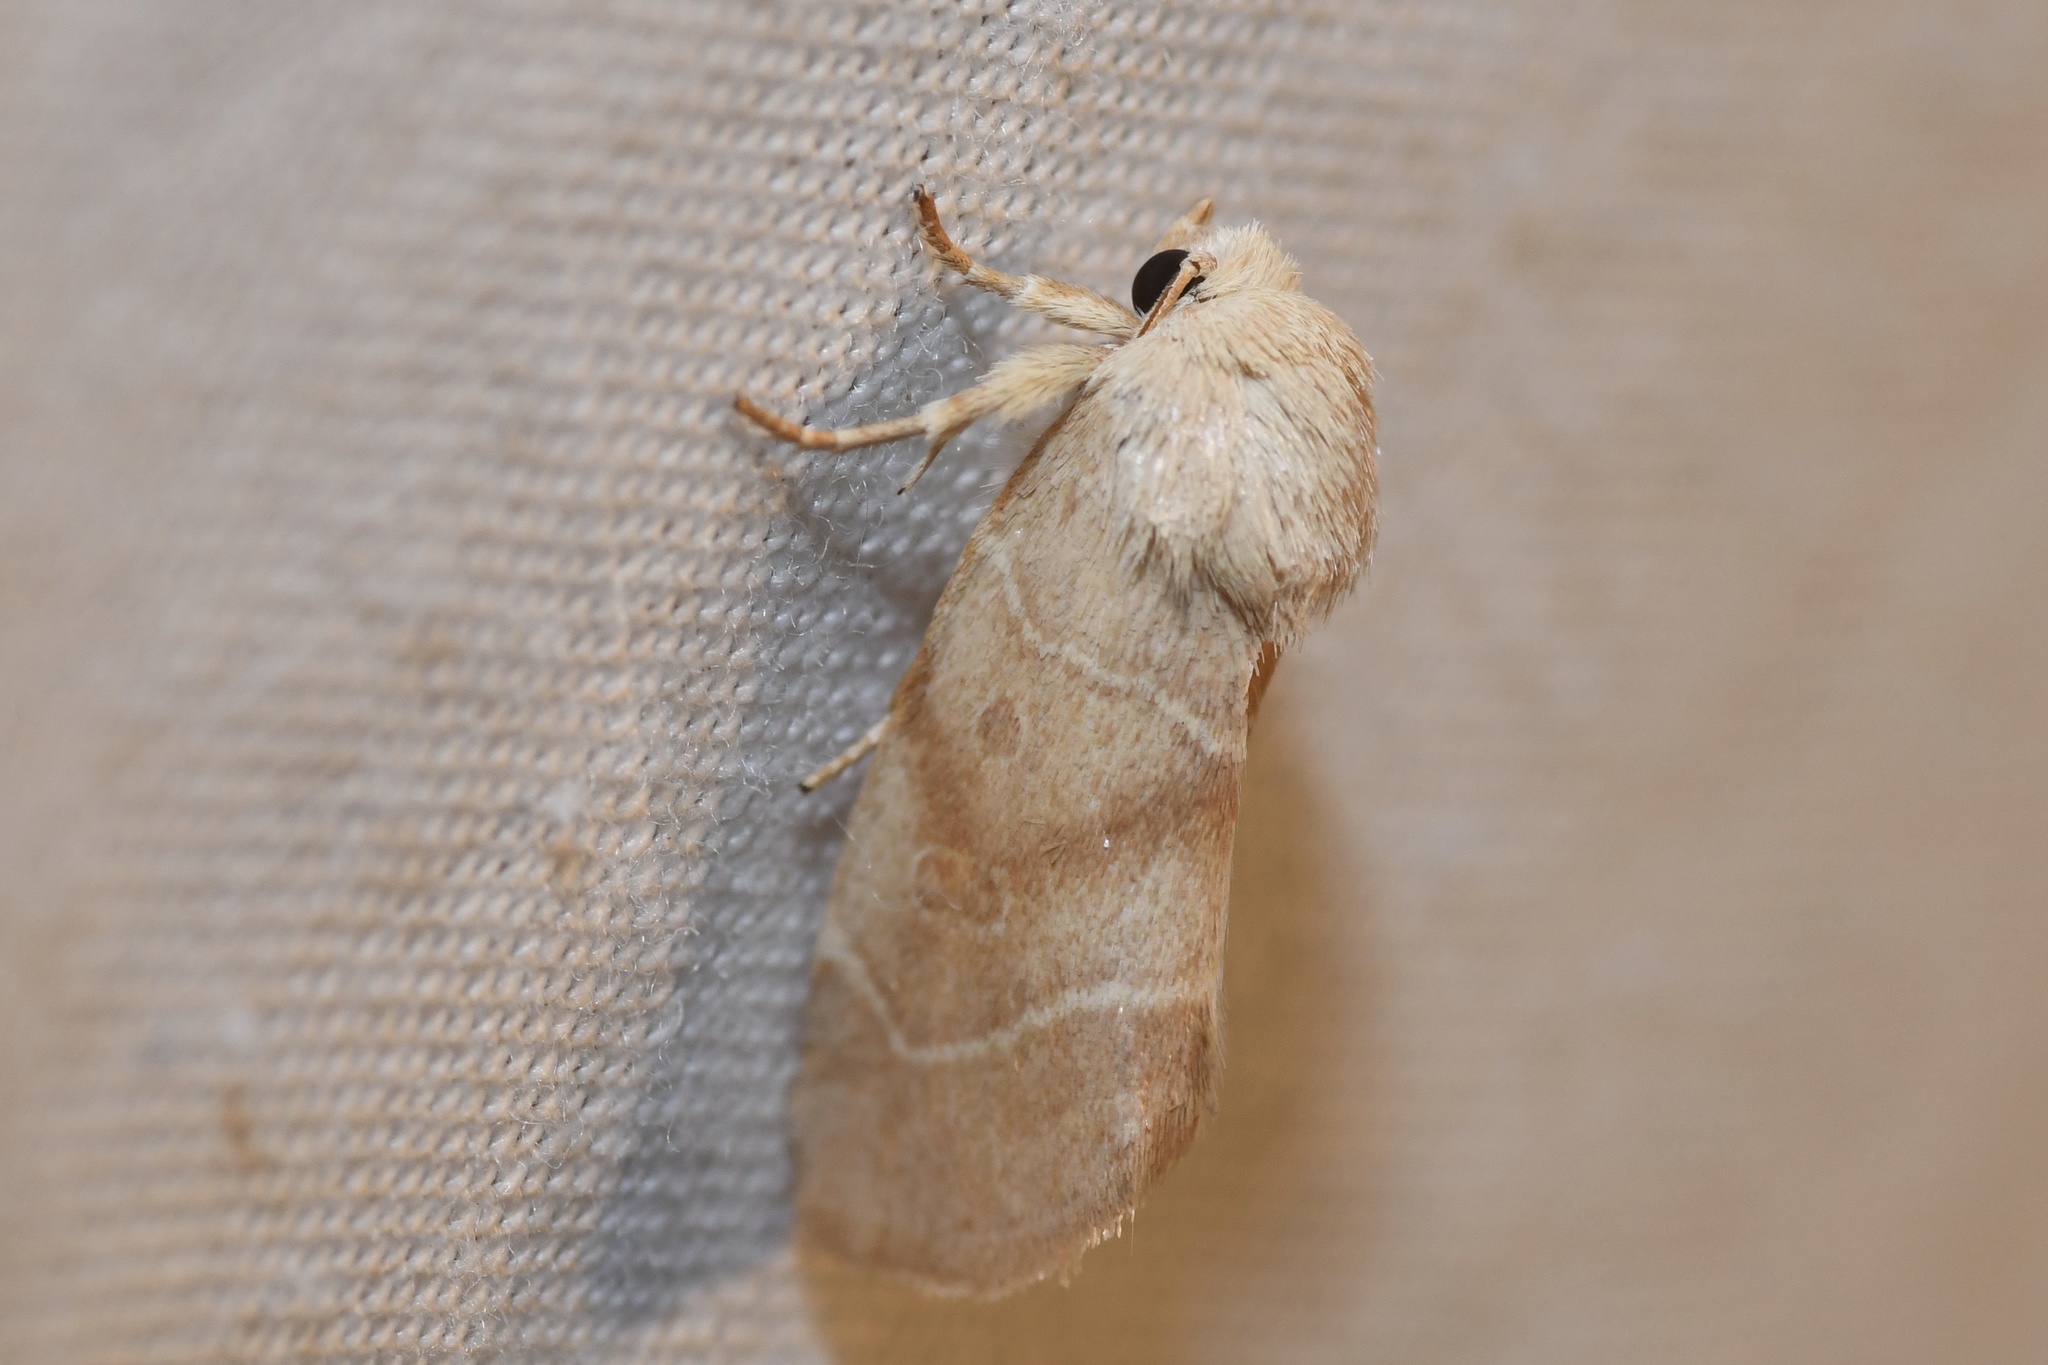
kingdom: Animalia
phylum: Arthropoda
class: Insecta
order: Lepidoptera
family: Noctuidae
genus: Cosmia
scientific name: Cosmia calami
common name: American dun-bar moth
